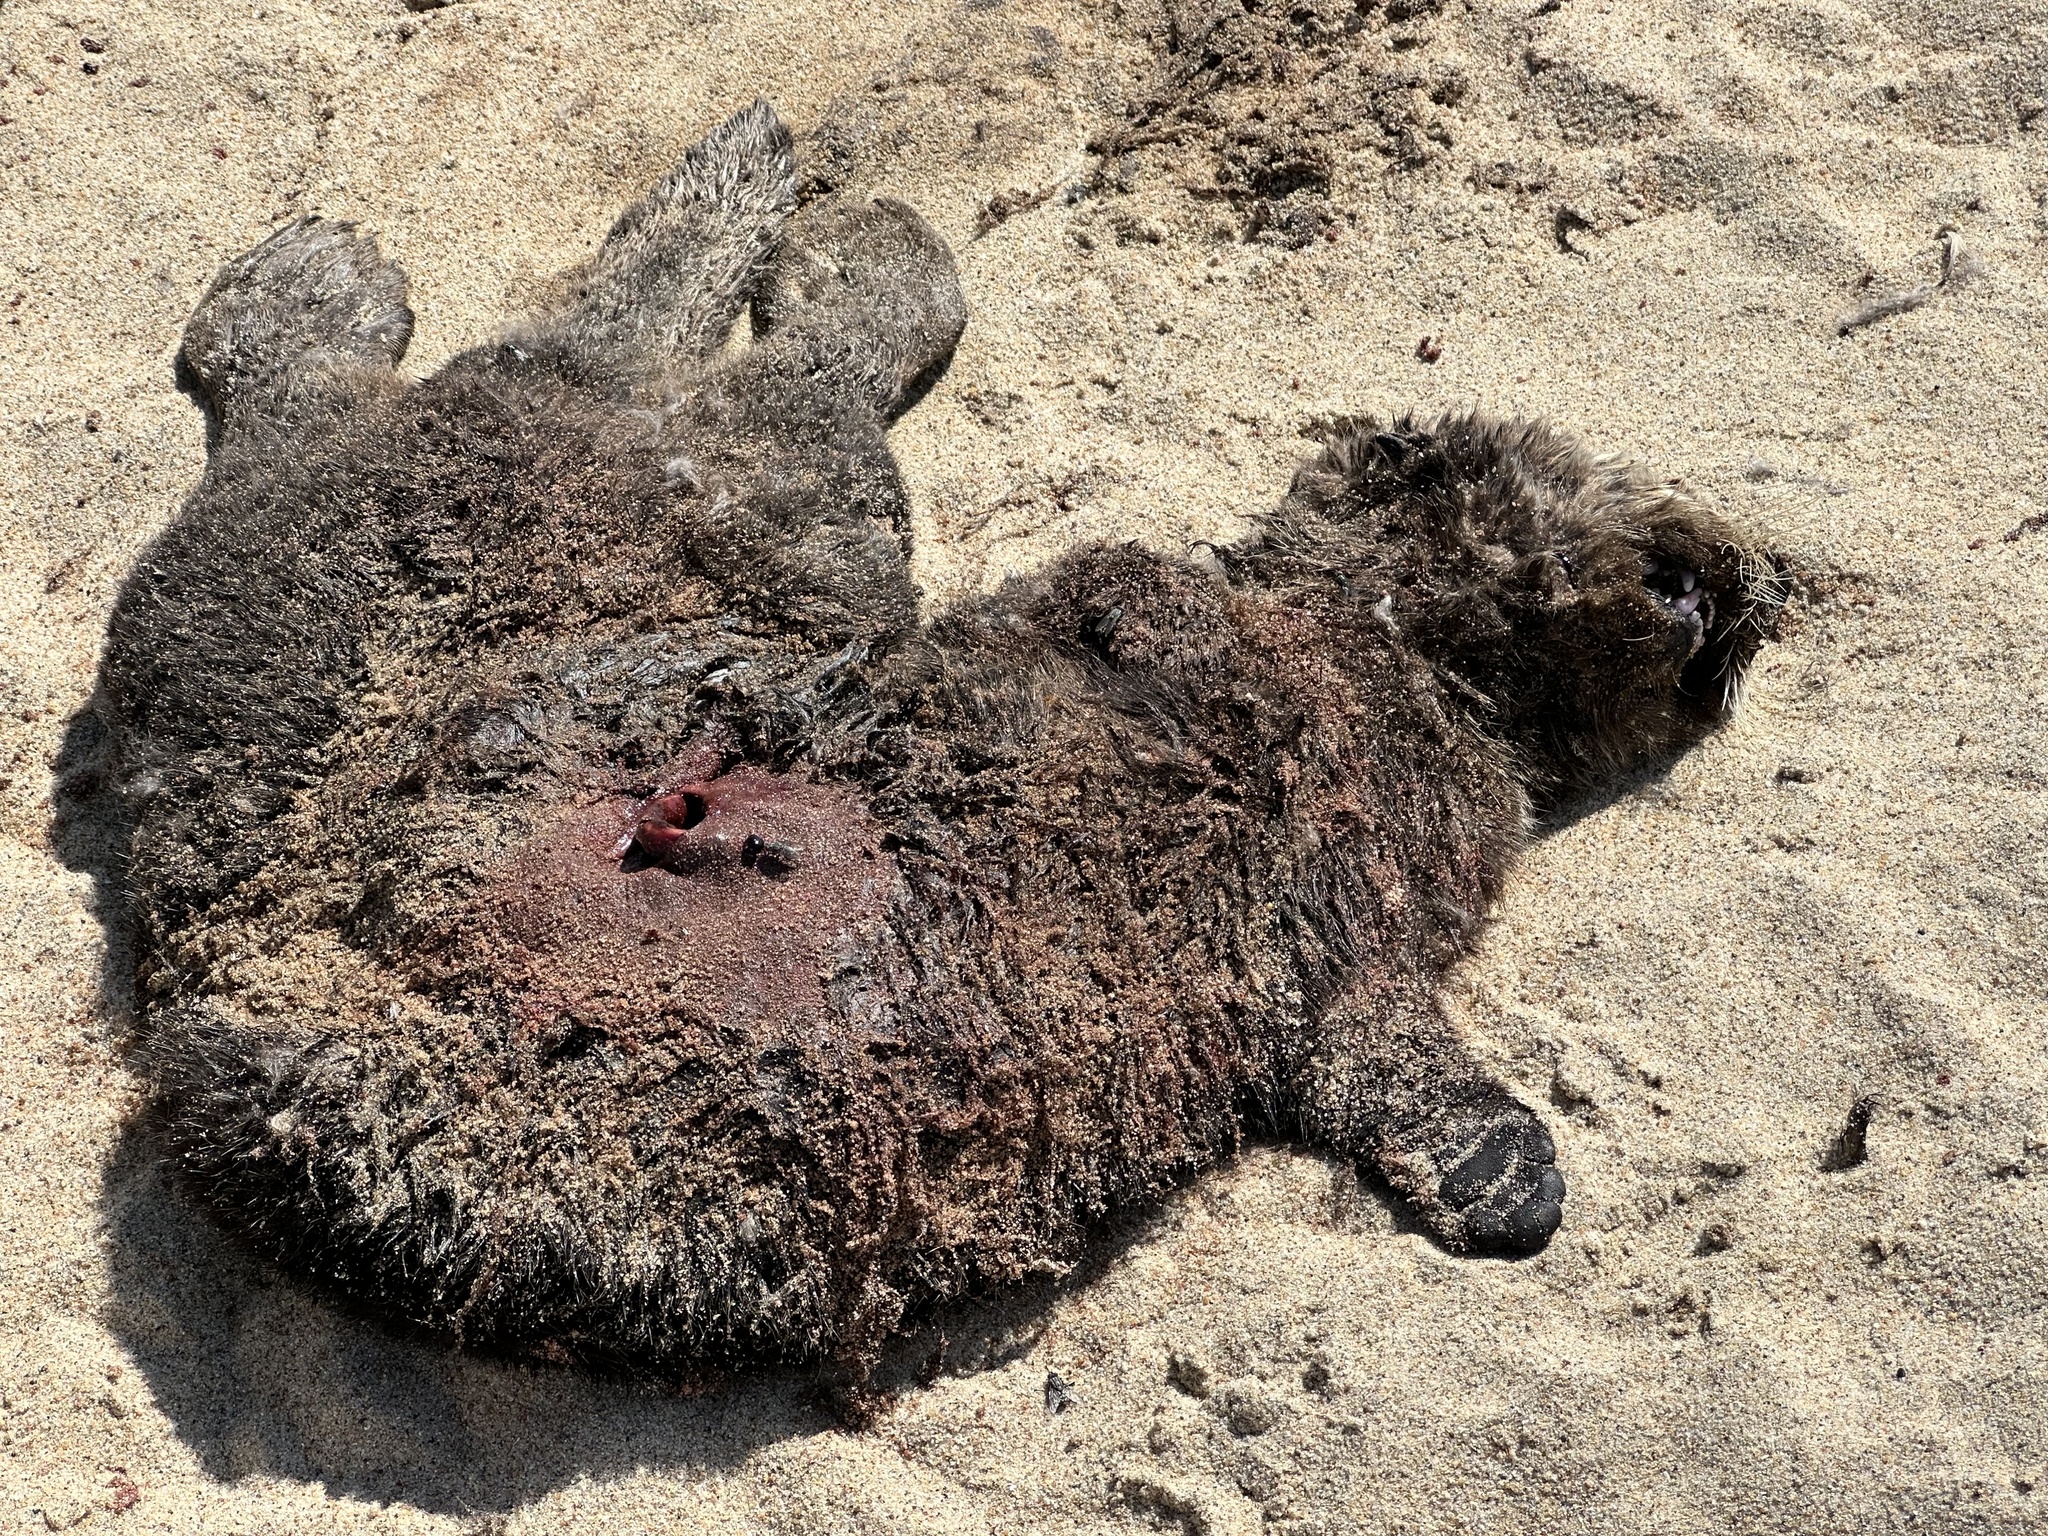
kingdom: Animalia
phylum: Chordata
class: Mammalia
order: Carnivora
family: Mustelidae
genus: Enhydra
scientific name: Enhydra lutris
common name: Sea otter
